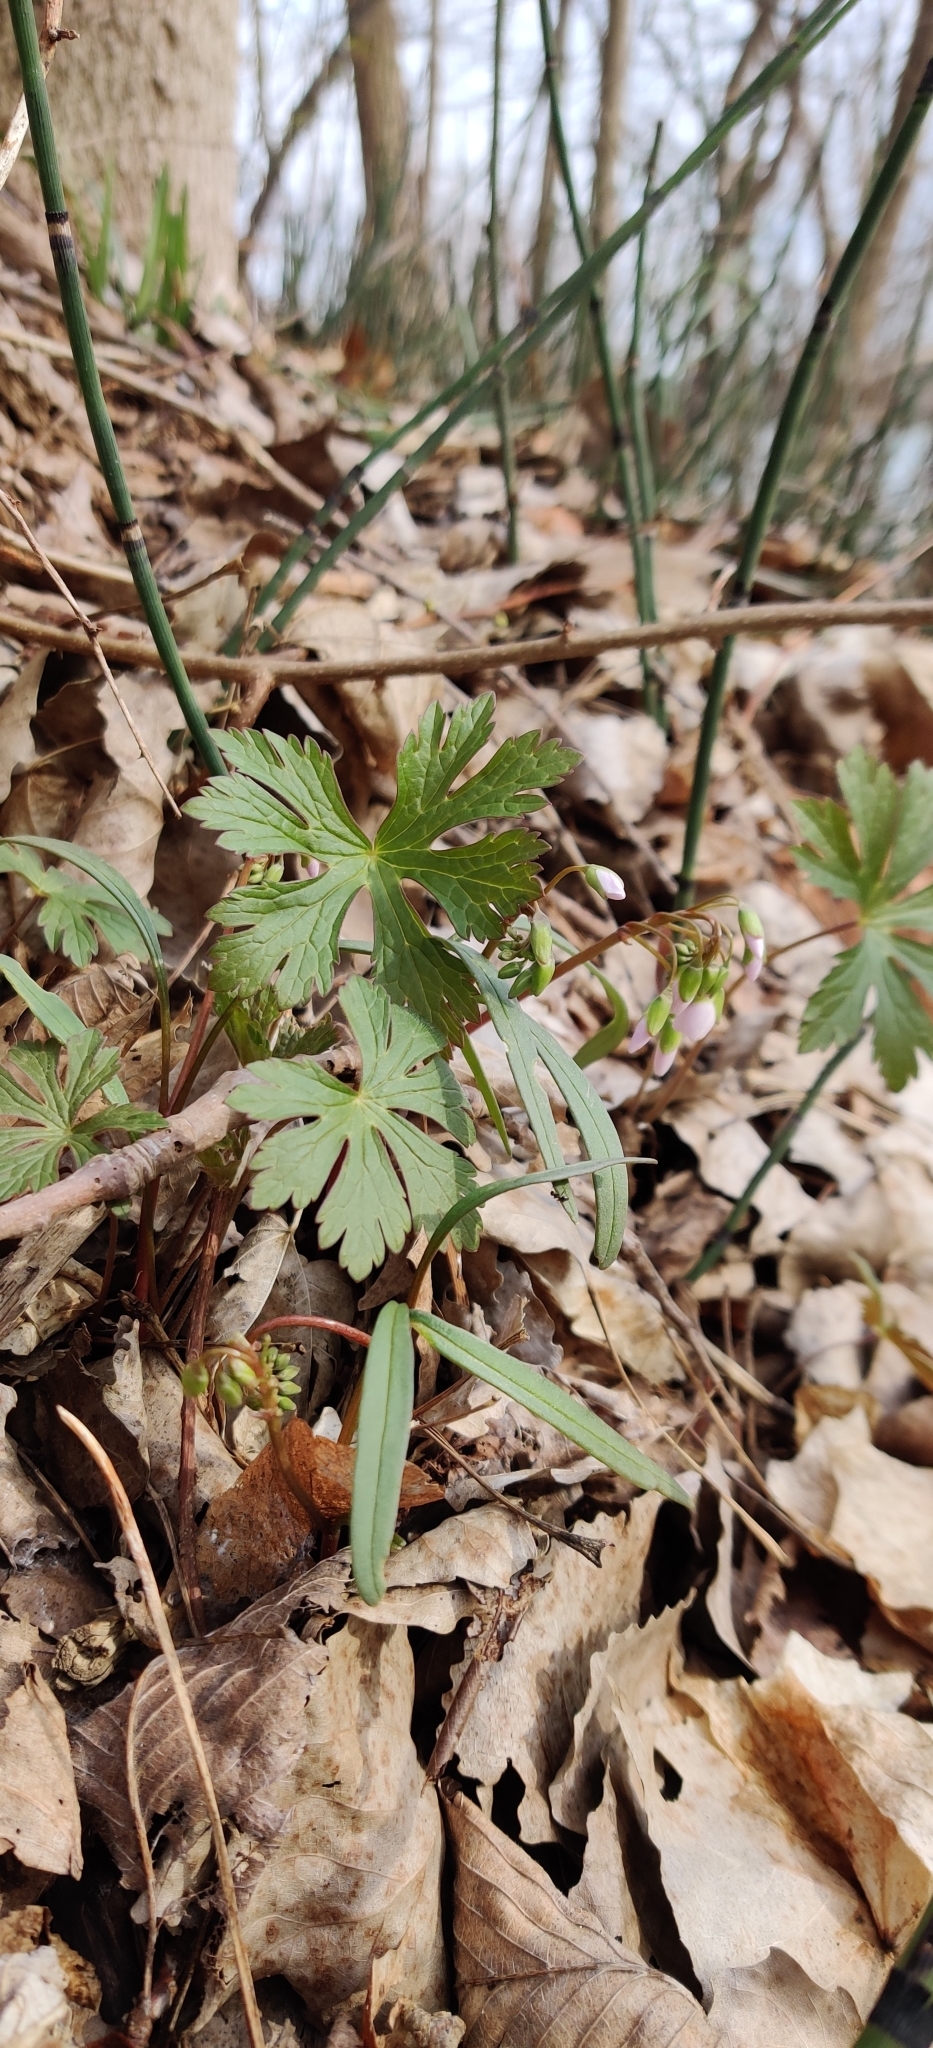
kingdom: Plantae
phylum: Tracheophyta
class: Magnoliopsida
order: Geraniales
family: Geraniaceae
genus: Geranium
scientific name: Geranium maculatum
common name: Spotted geranium
